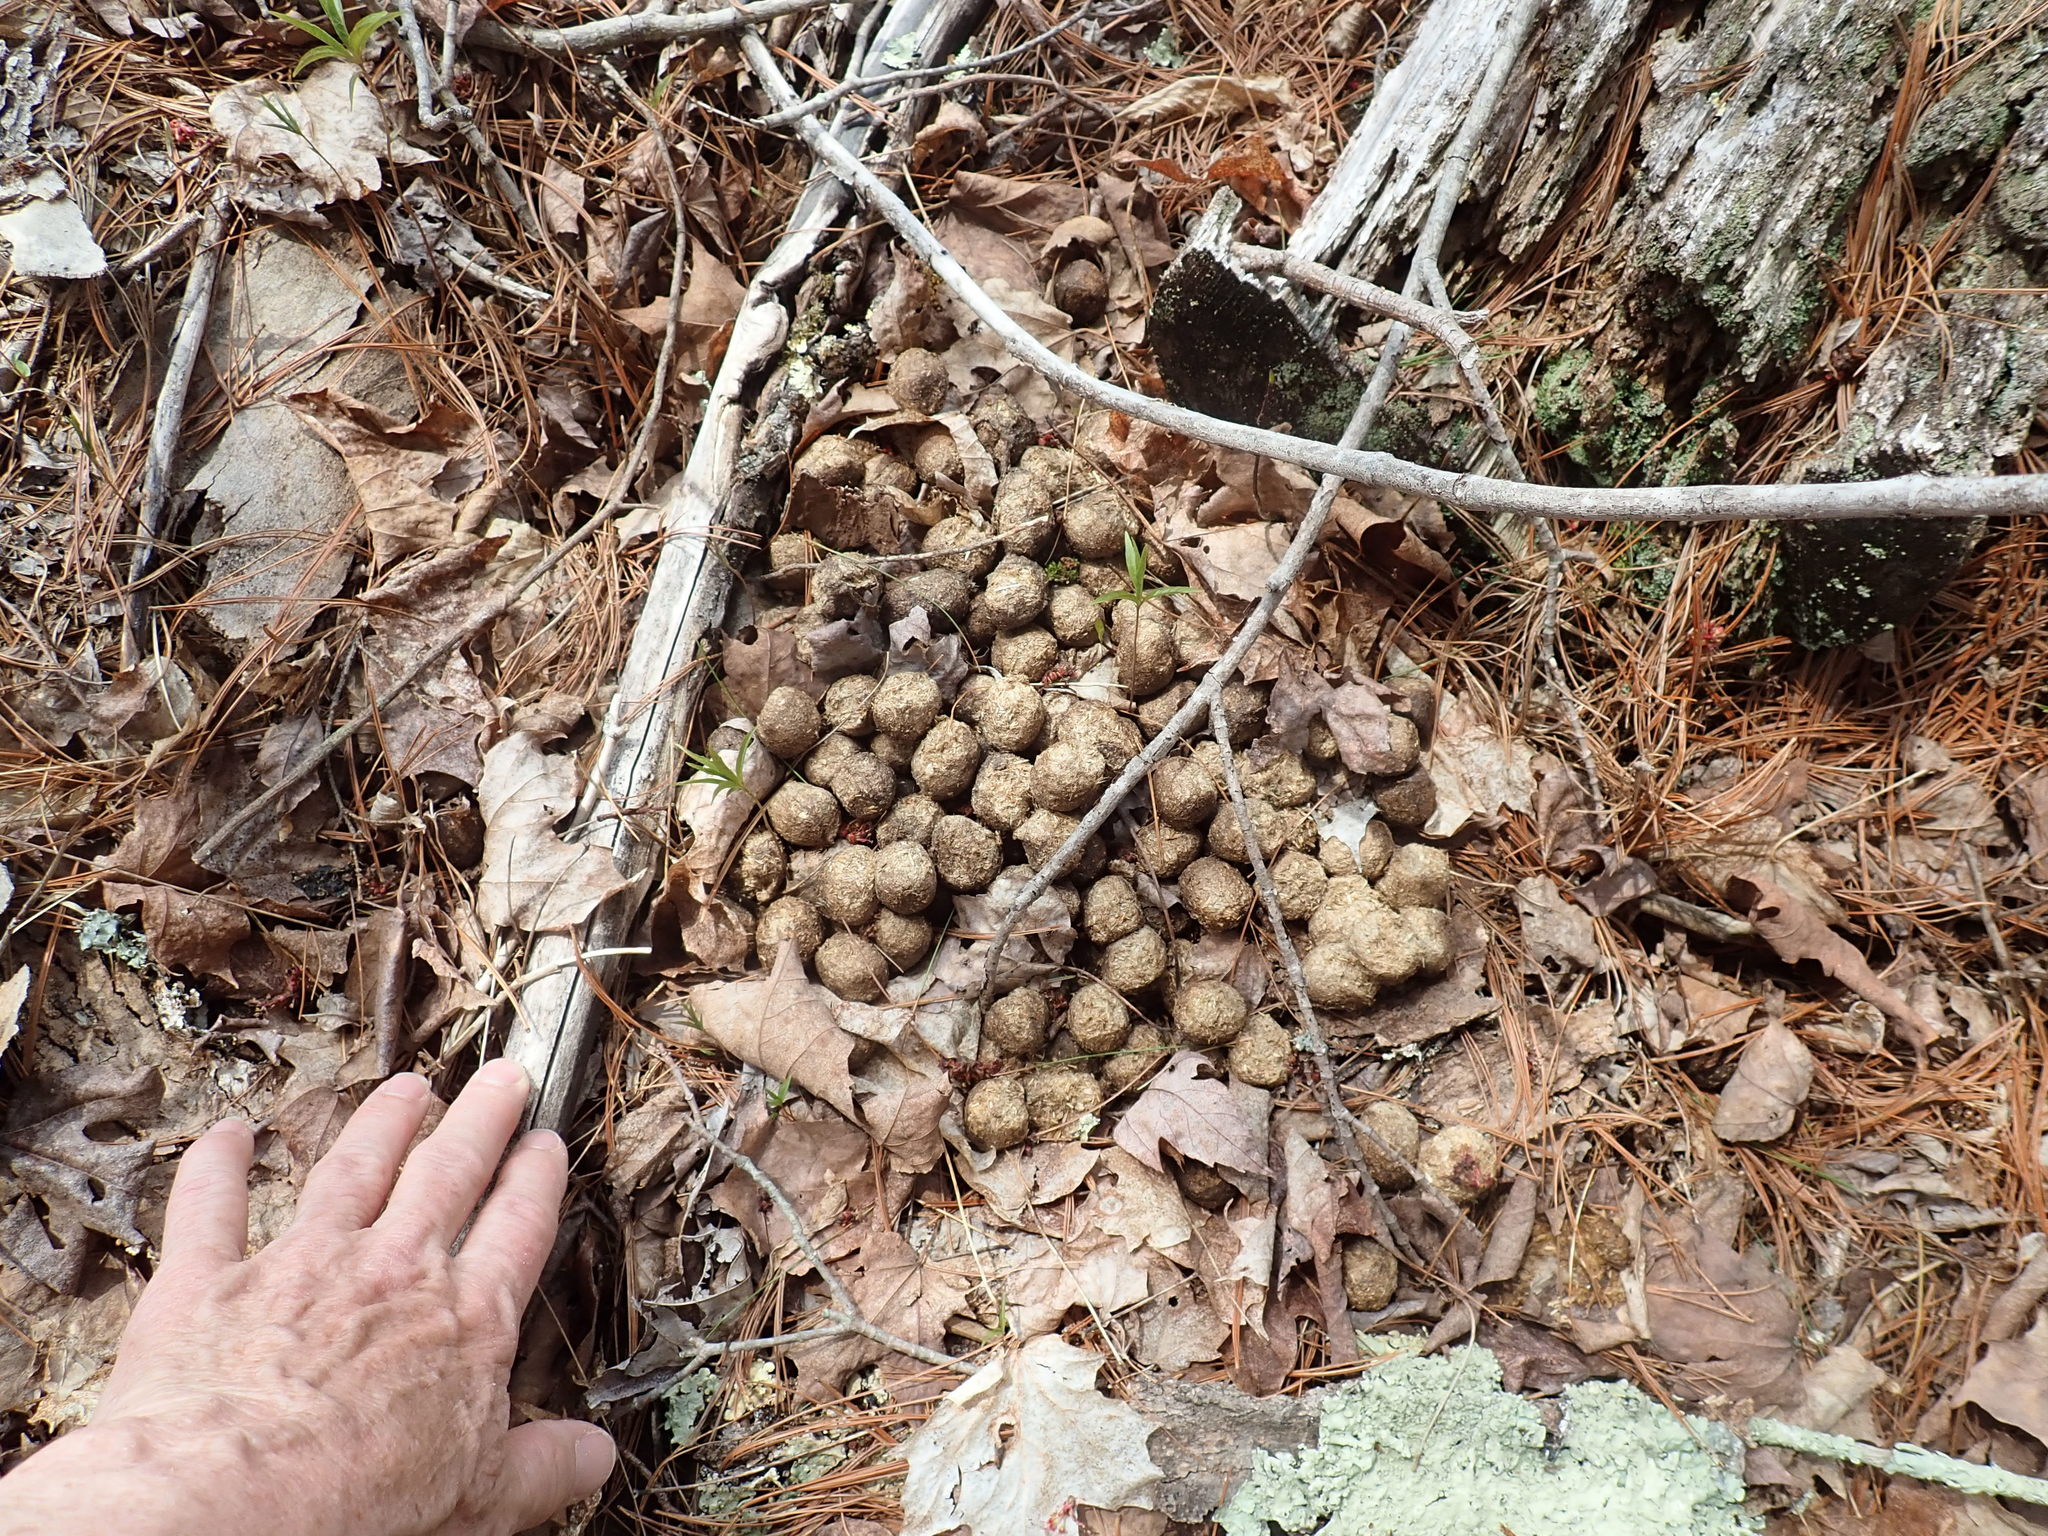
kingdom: Animalia
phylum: Chordata
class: Mammalia
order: Artiodactyla
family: Cervidae
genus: Alces
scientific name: Alces alces
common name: Moose
